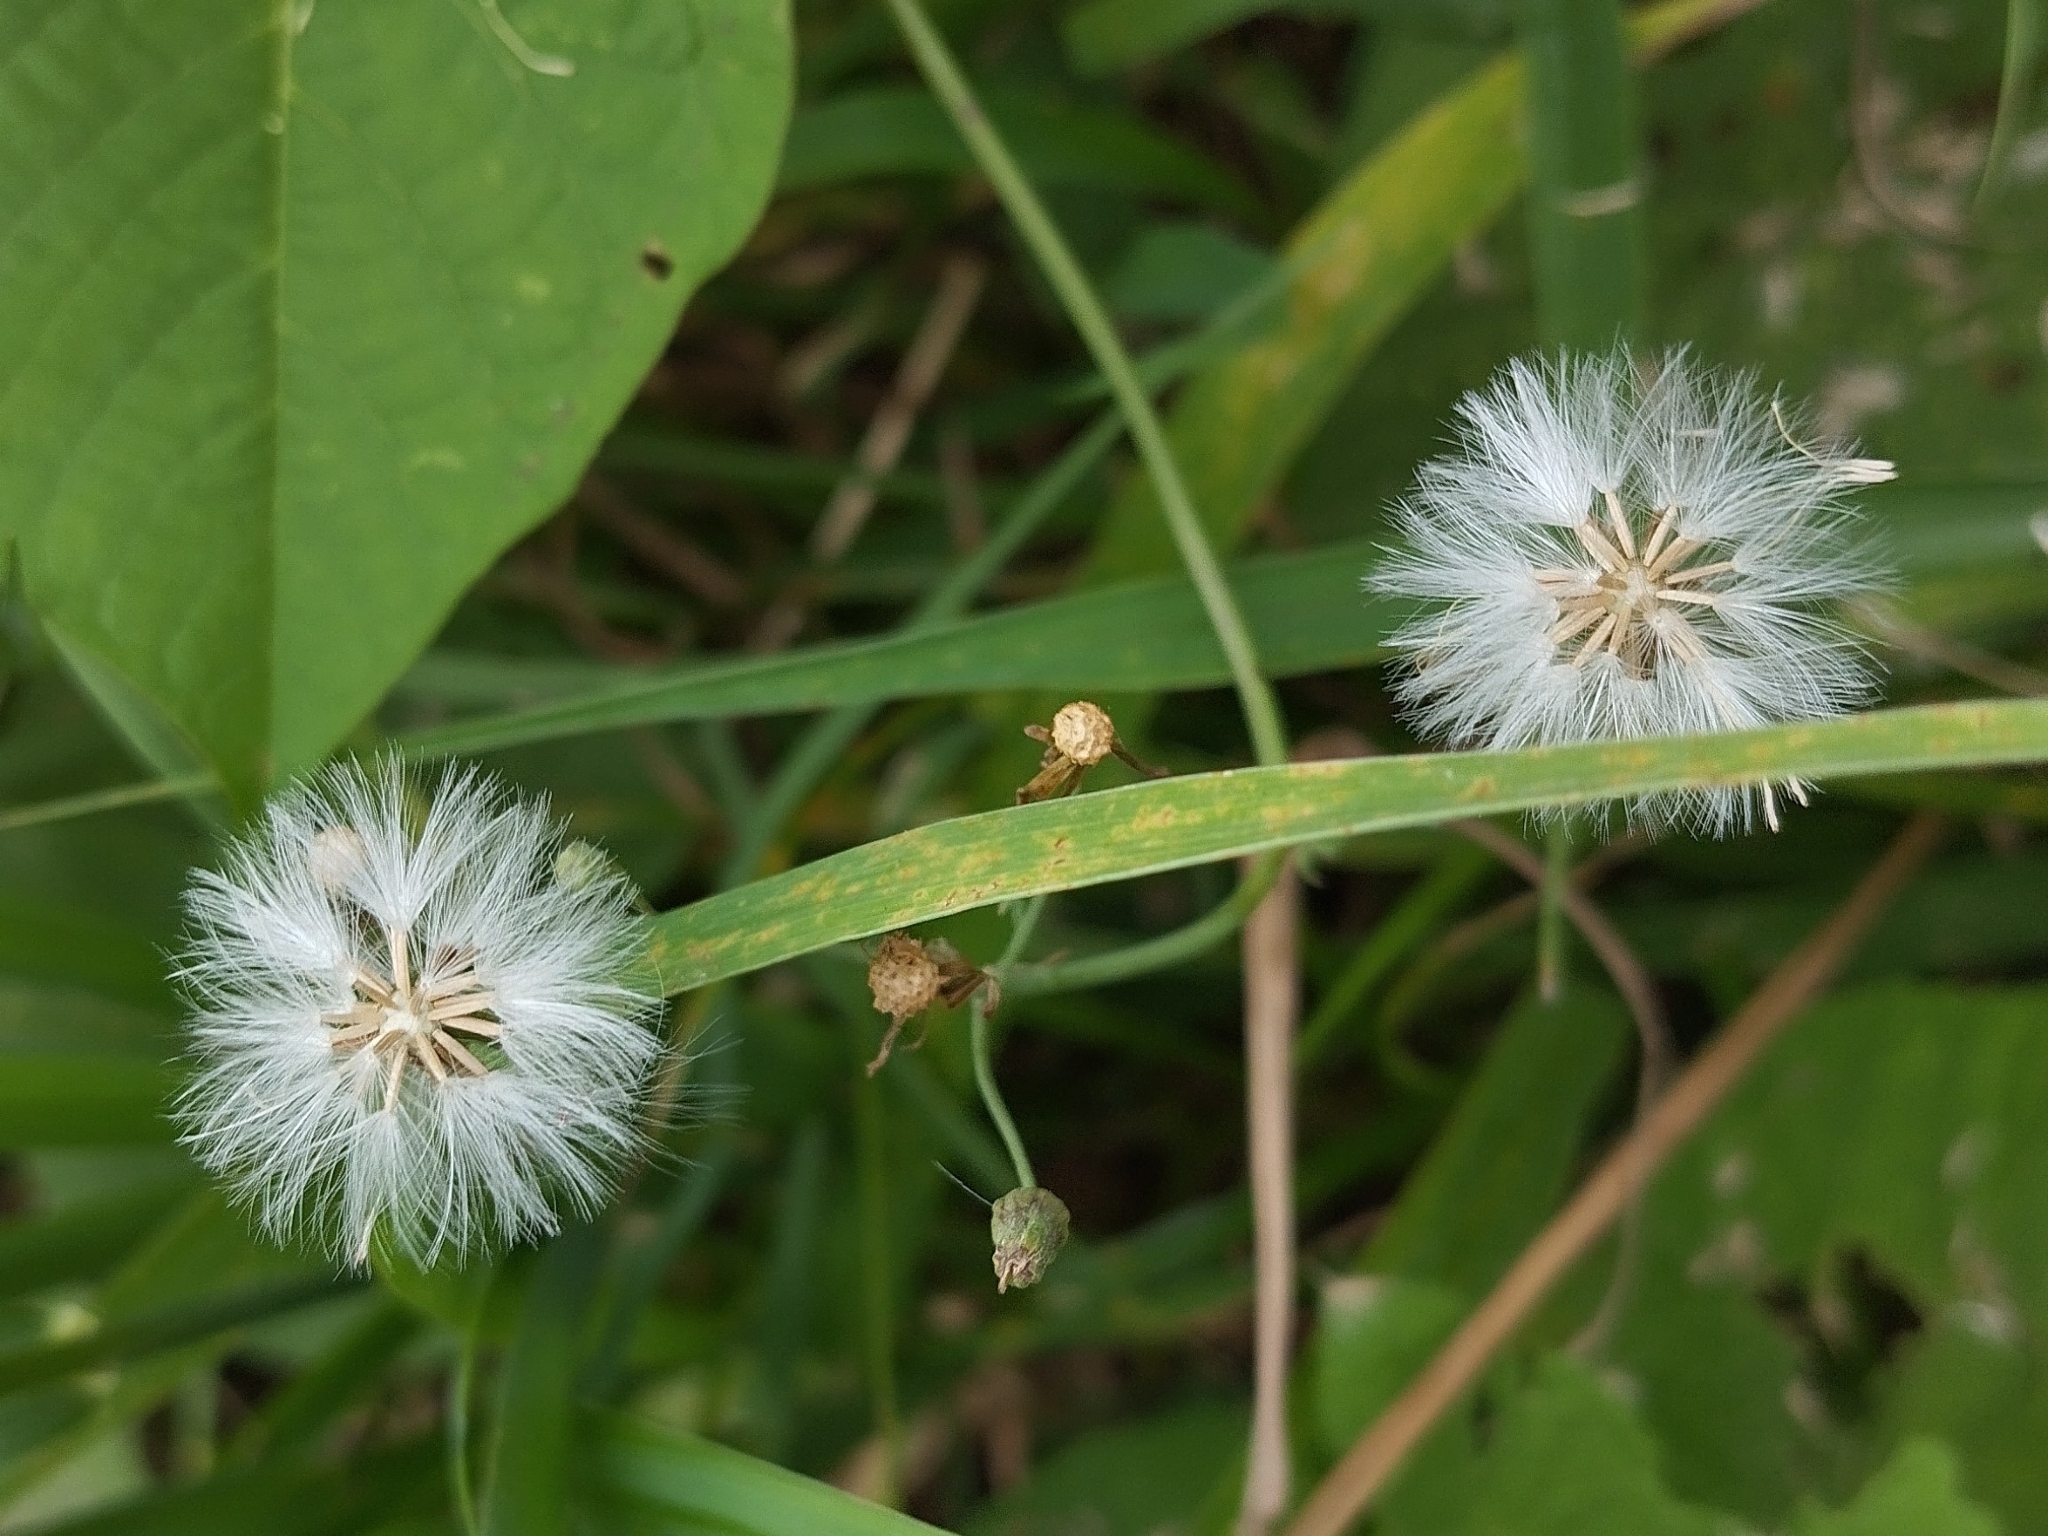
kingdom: Plantae
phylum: Tracheophyta
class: Magnoliopsida
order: Asterales
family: Asteraceae
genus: Emilia
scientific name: Emilia sonchifolia
